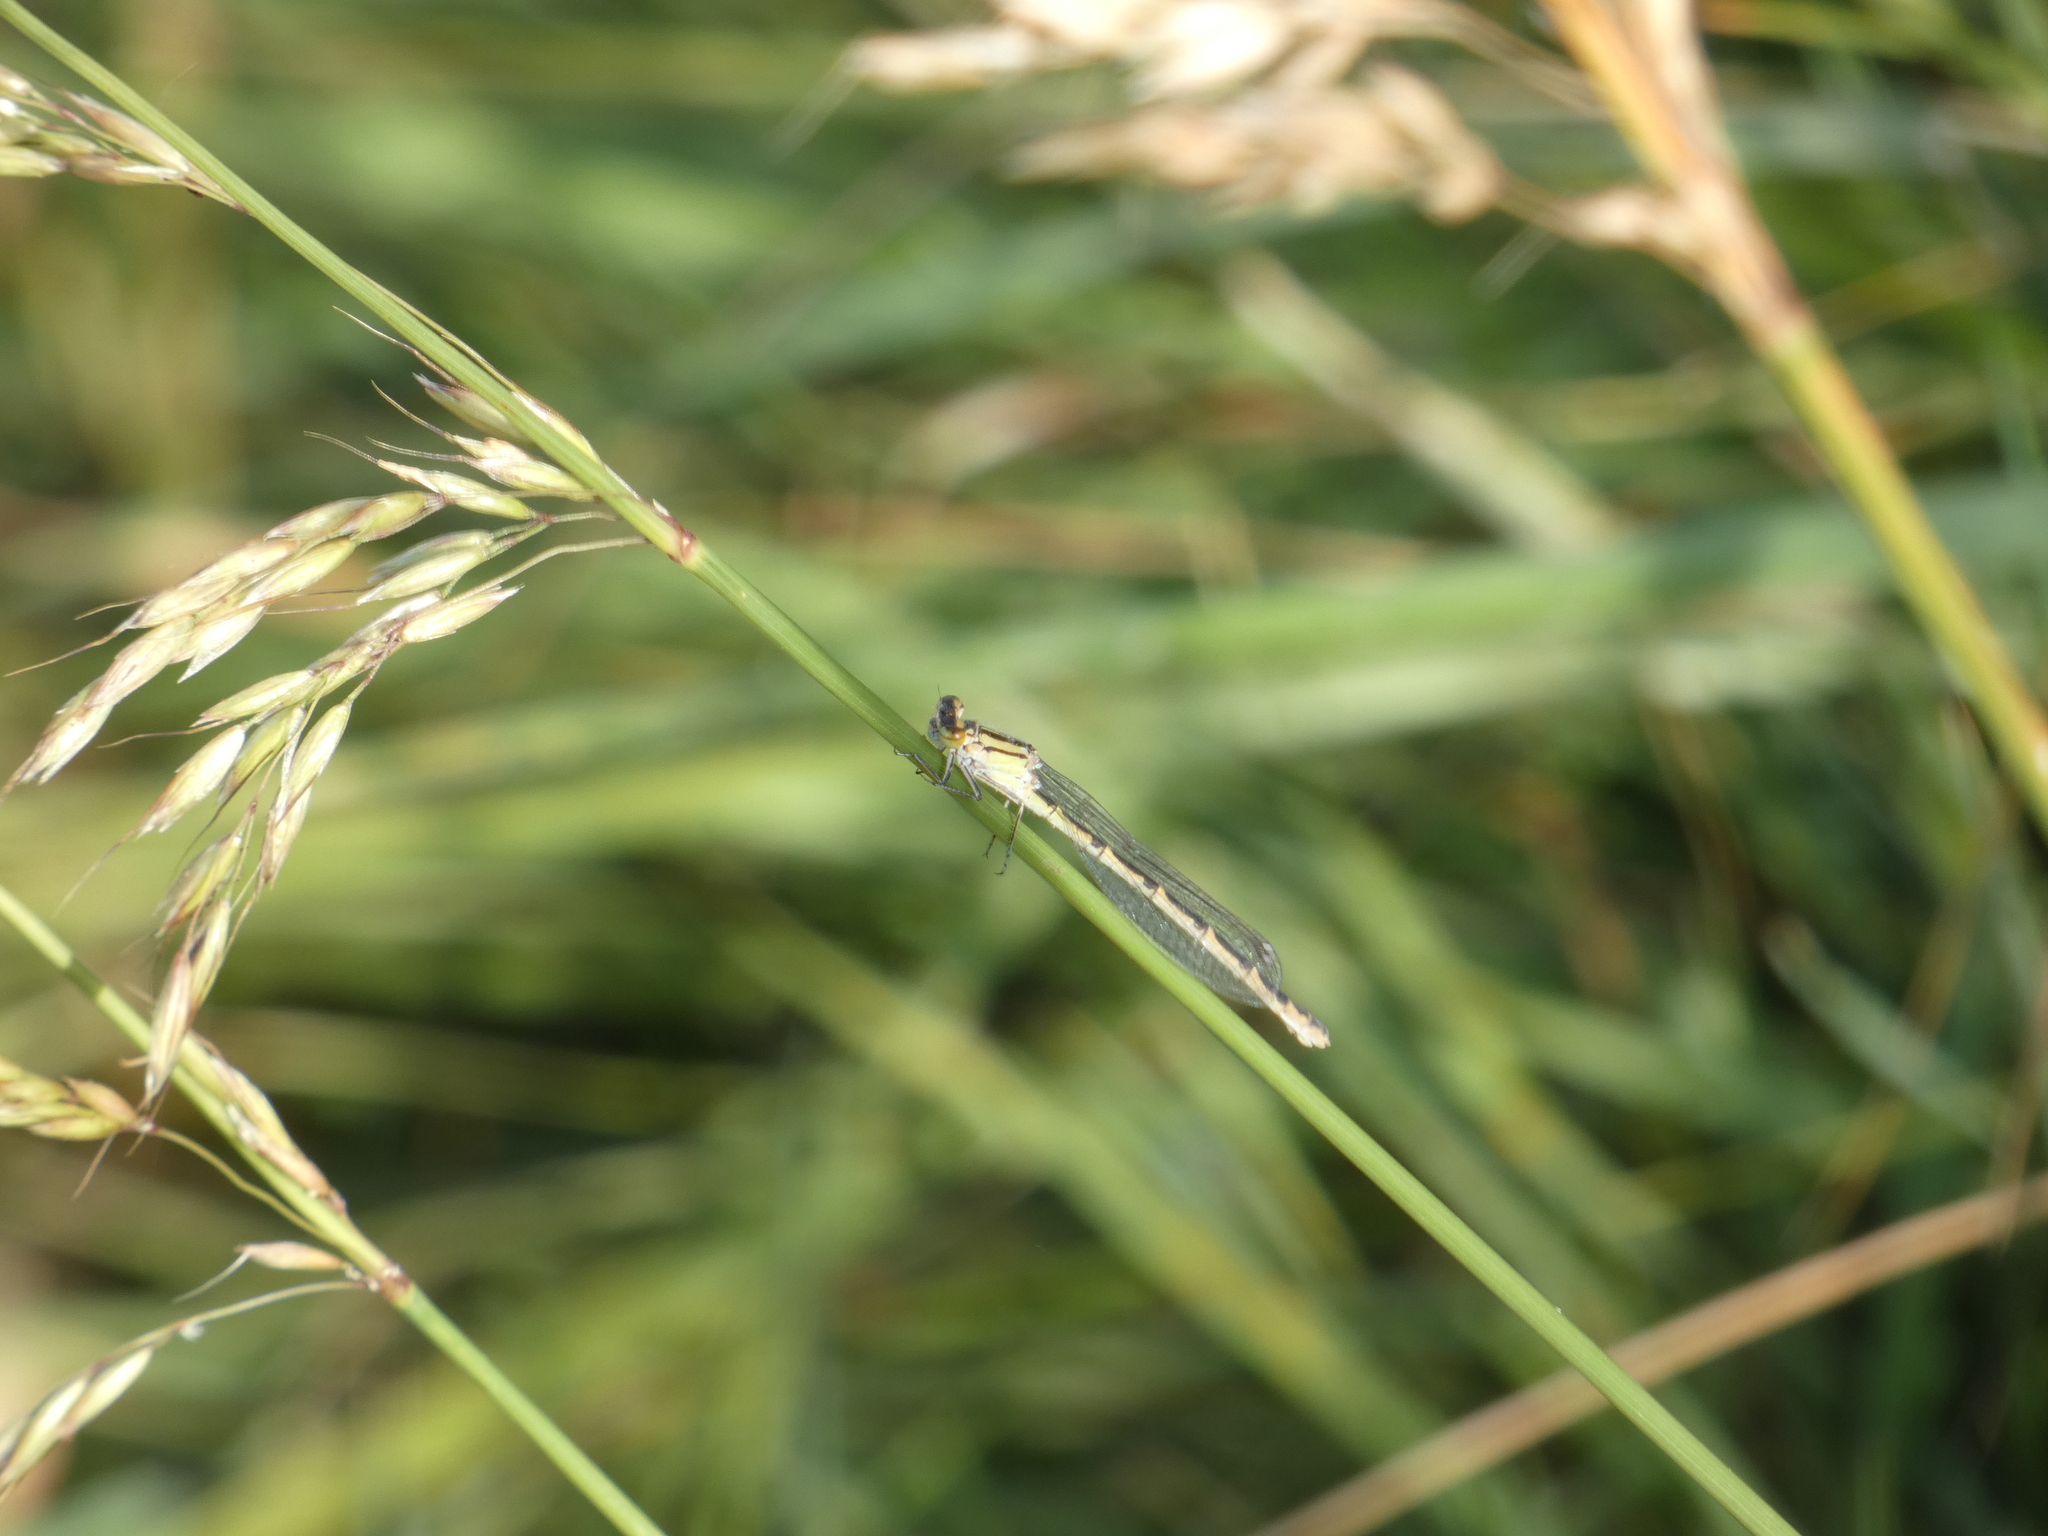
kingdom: Animalia
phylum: Arthropoda
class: Insecta
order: Odonata
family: Coenagrionidae
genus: Enallagma
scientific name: Enallagma cyathigerum
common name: Common blue damselfly
